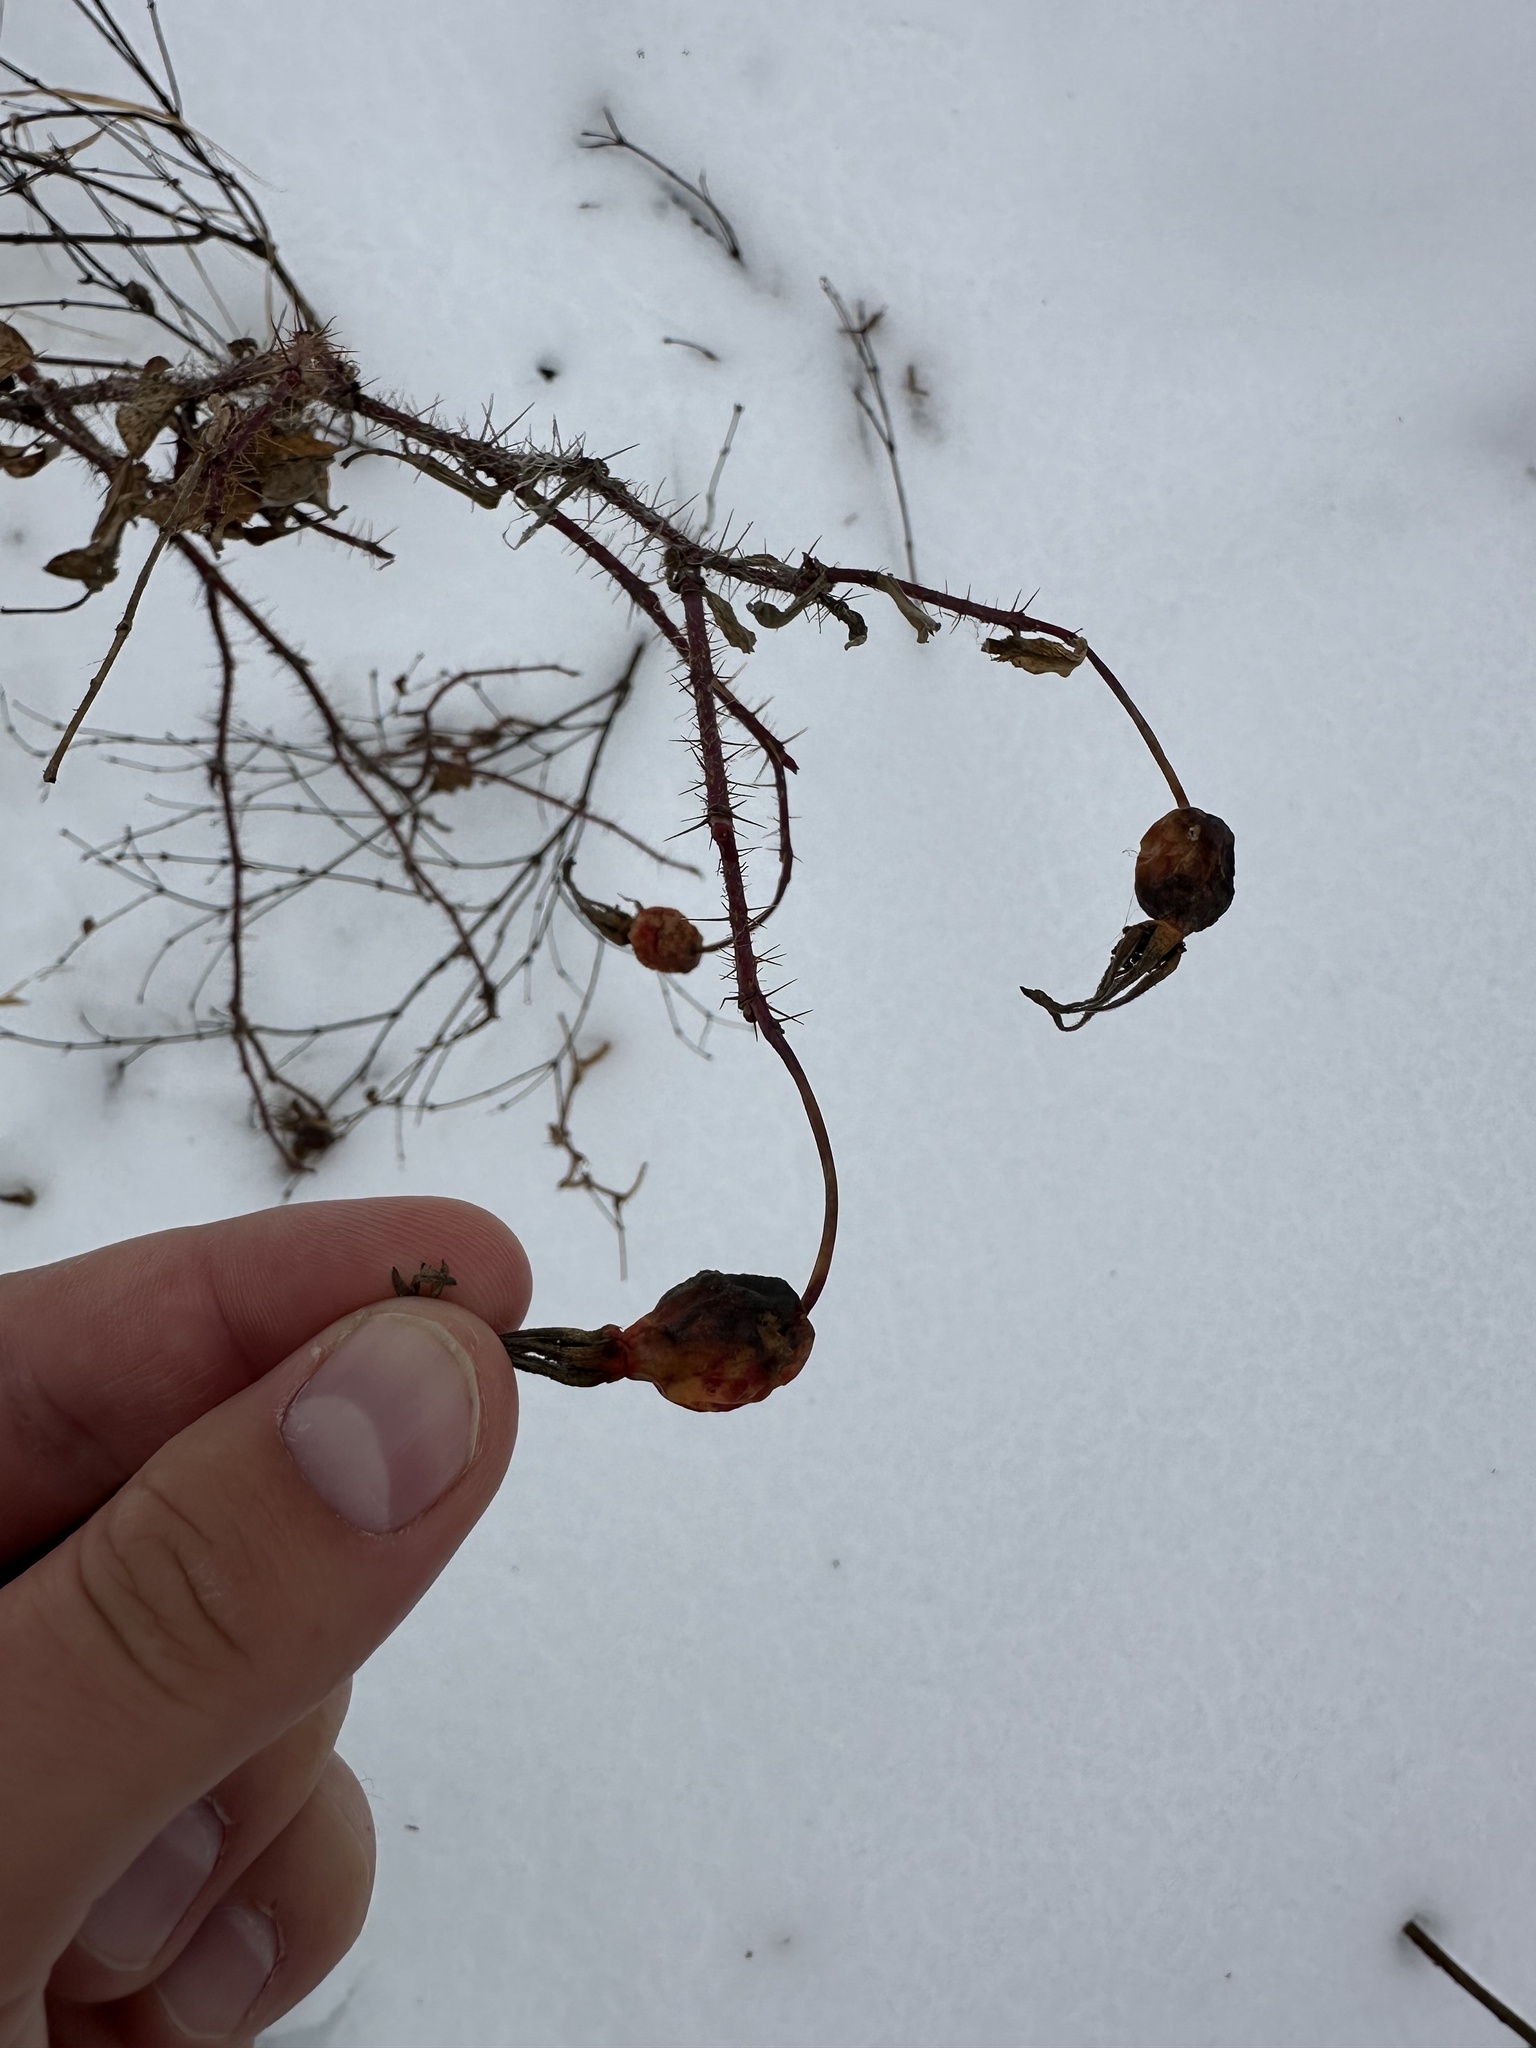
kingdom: Plantae
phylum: Tracheophyta
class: Magnoliopsida
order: Rosales
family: Rosaceae
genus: Rosa
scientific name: Rosa acicularis
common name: Prickly rose
